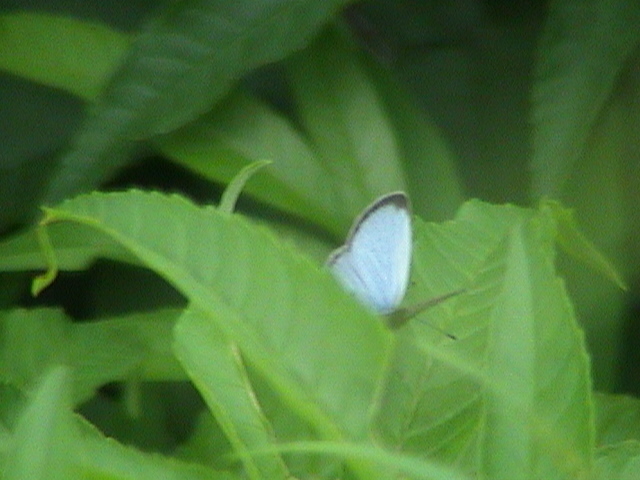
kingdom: Animalia
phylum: Arthropoda
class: Insecta
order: Lepidoptera
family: Lycaenidae
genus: Pseudozizeeria
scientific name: Pseudozizeeria maha
